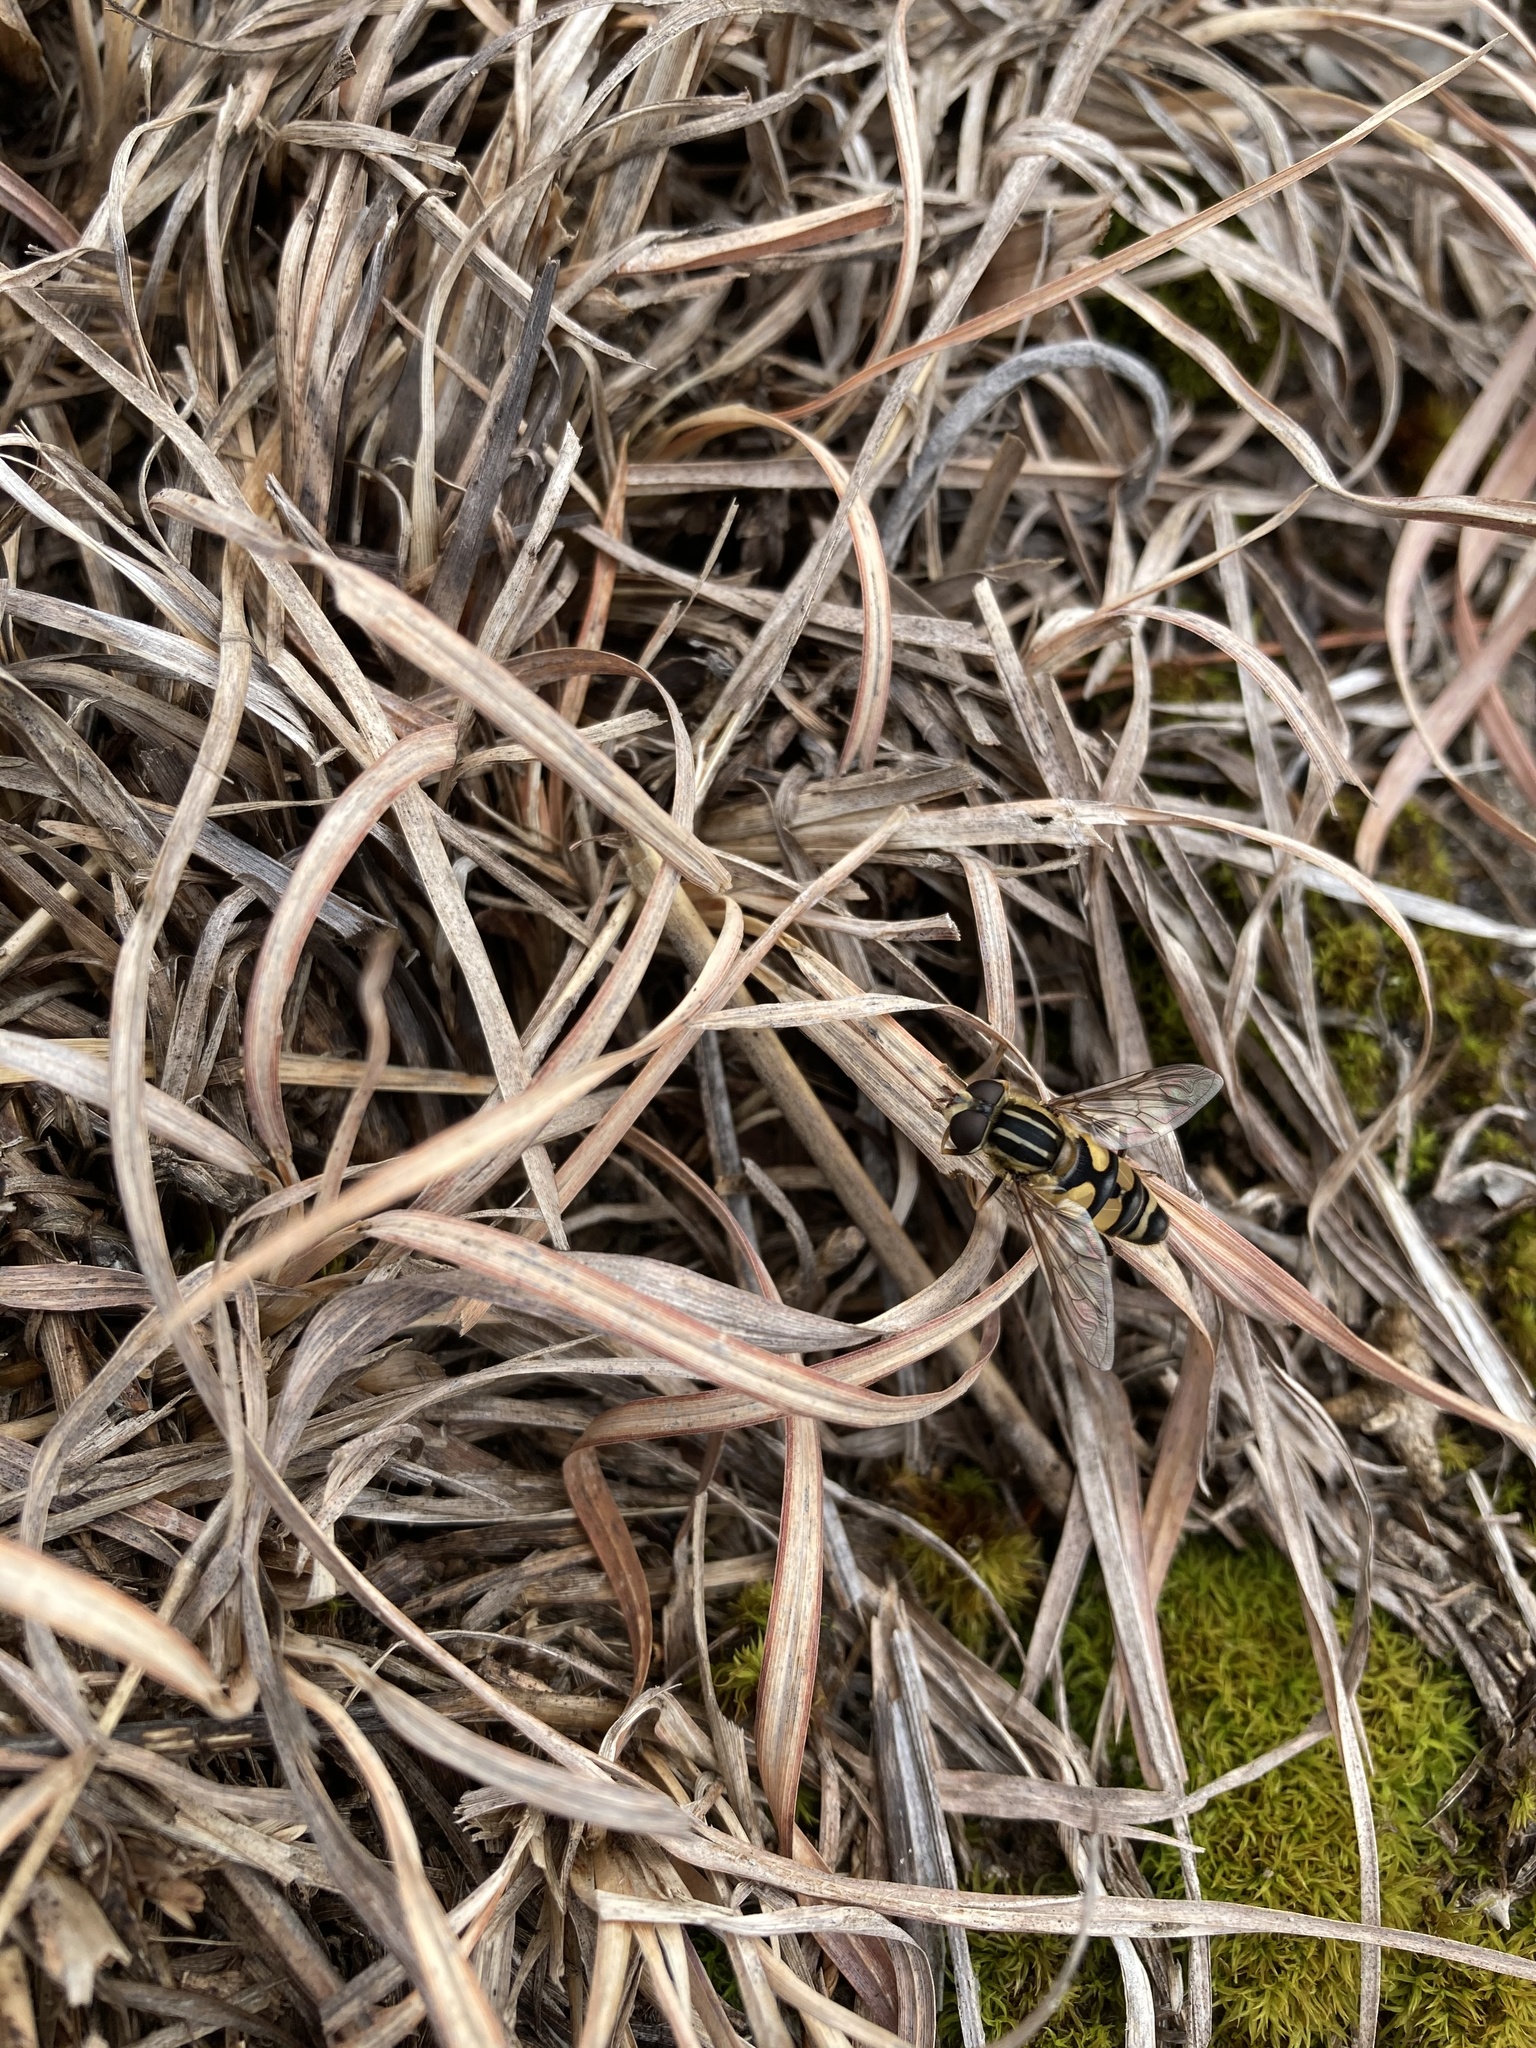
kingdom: Animalia
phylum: Arthropoda
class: Insecta
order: Diptera
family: Syrphidae
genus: Helophilus
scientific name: Helophilus fasciatus
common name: Narrow-headed marsh fly
